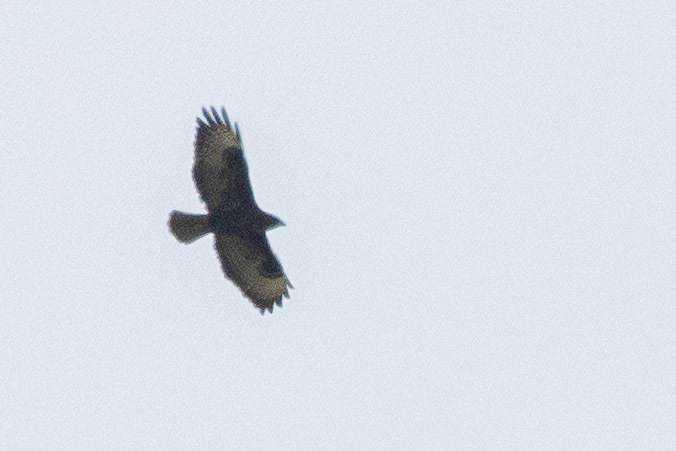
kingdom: Animalia
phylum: Chordata
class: Aves
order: Accipitriformes
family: Accipitridae
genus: Buteo
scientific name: Buteo buteo
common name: Common buzzard
